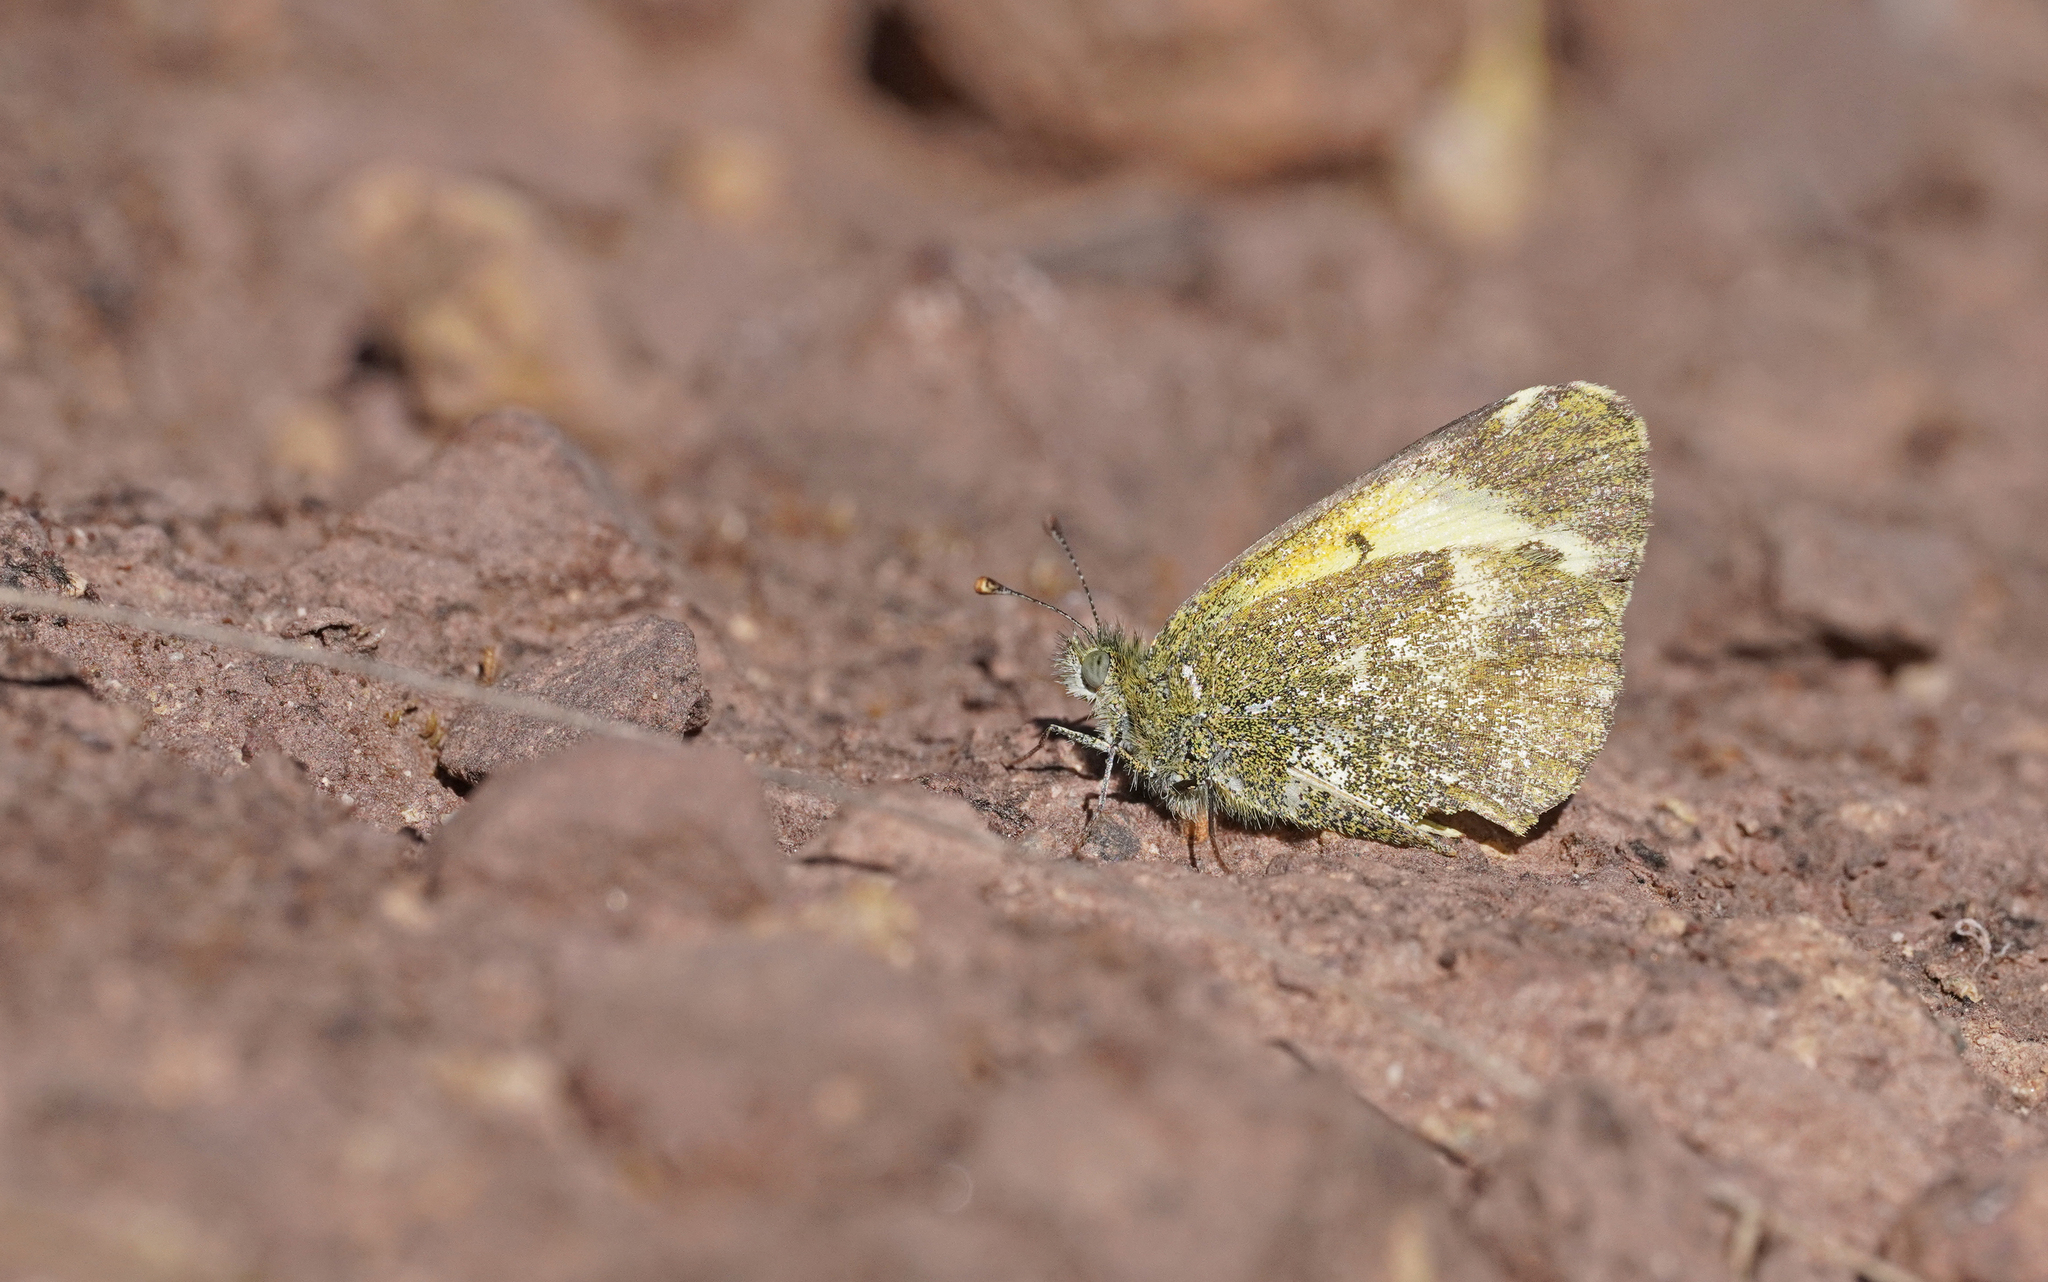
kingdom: Animalia
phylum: Arthropoda
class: Insecta
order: Lepidoptera
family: Pieridae
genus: Nathalis
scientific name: Nathalis iole
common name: Dainty sulphur
